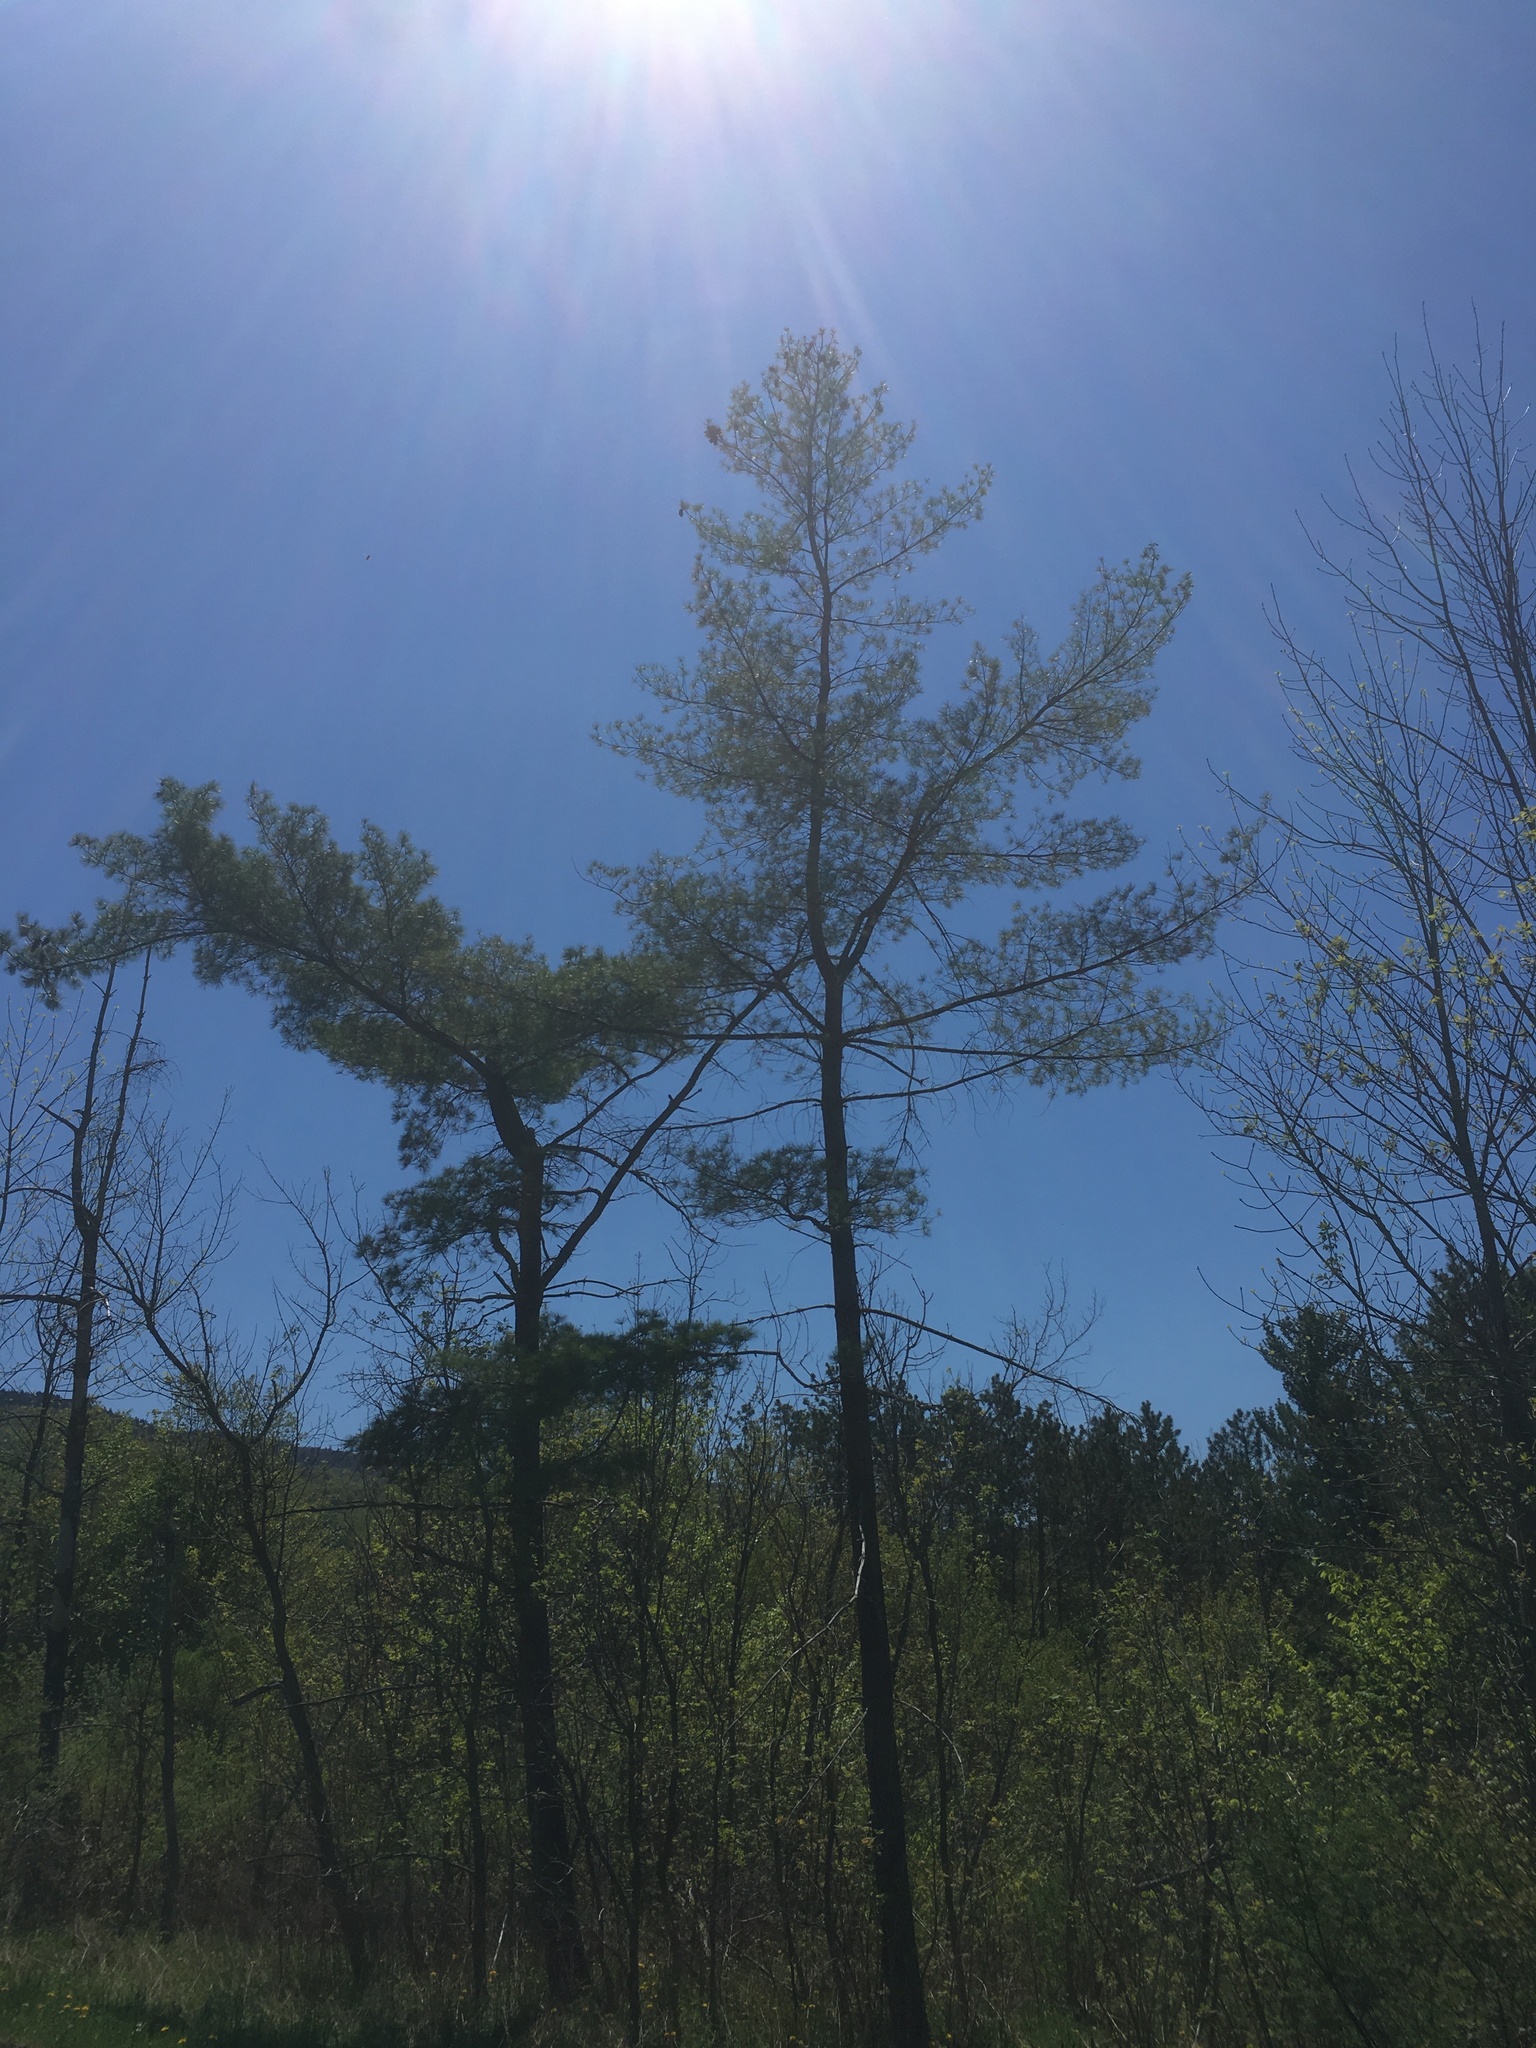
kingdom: Plantae
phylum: Tracheophyta
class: Pinopsida
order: Pinales
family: Pinaceae
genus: Pinus
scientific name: Pinus strobus
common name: Weymouth pine
